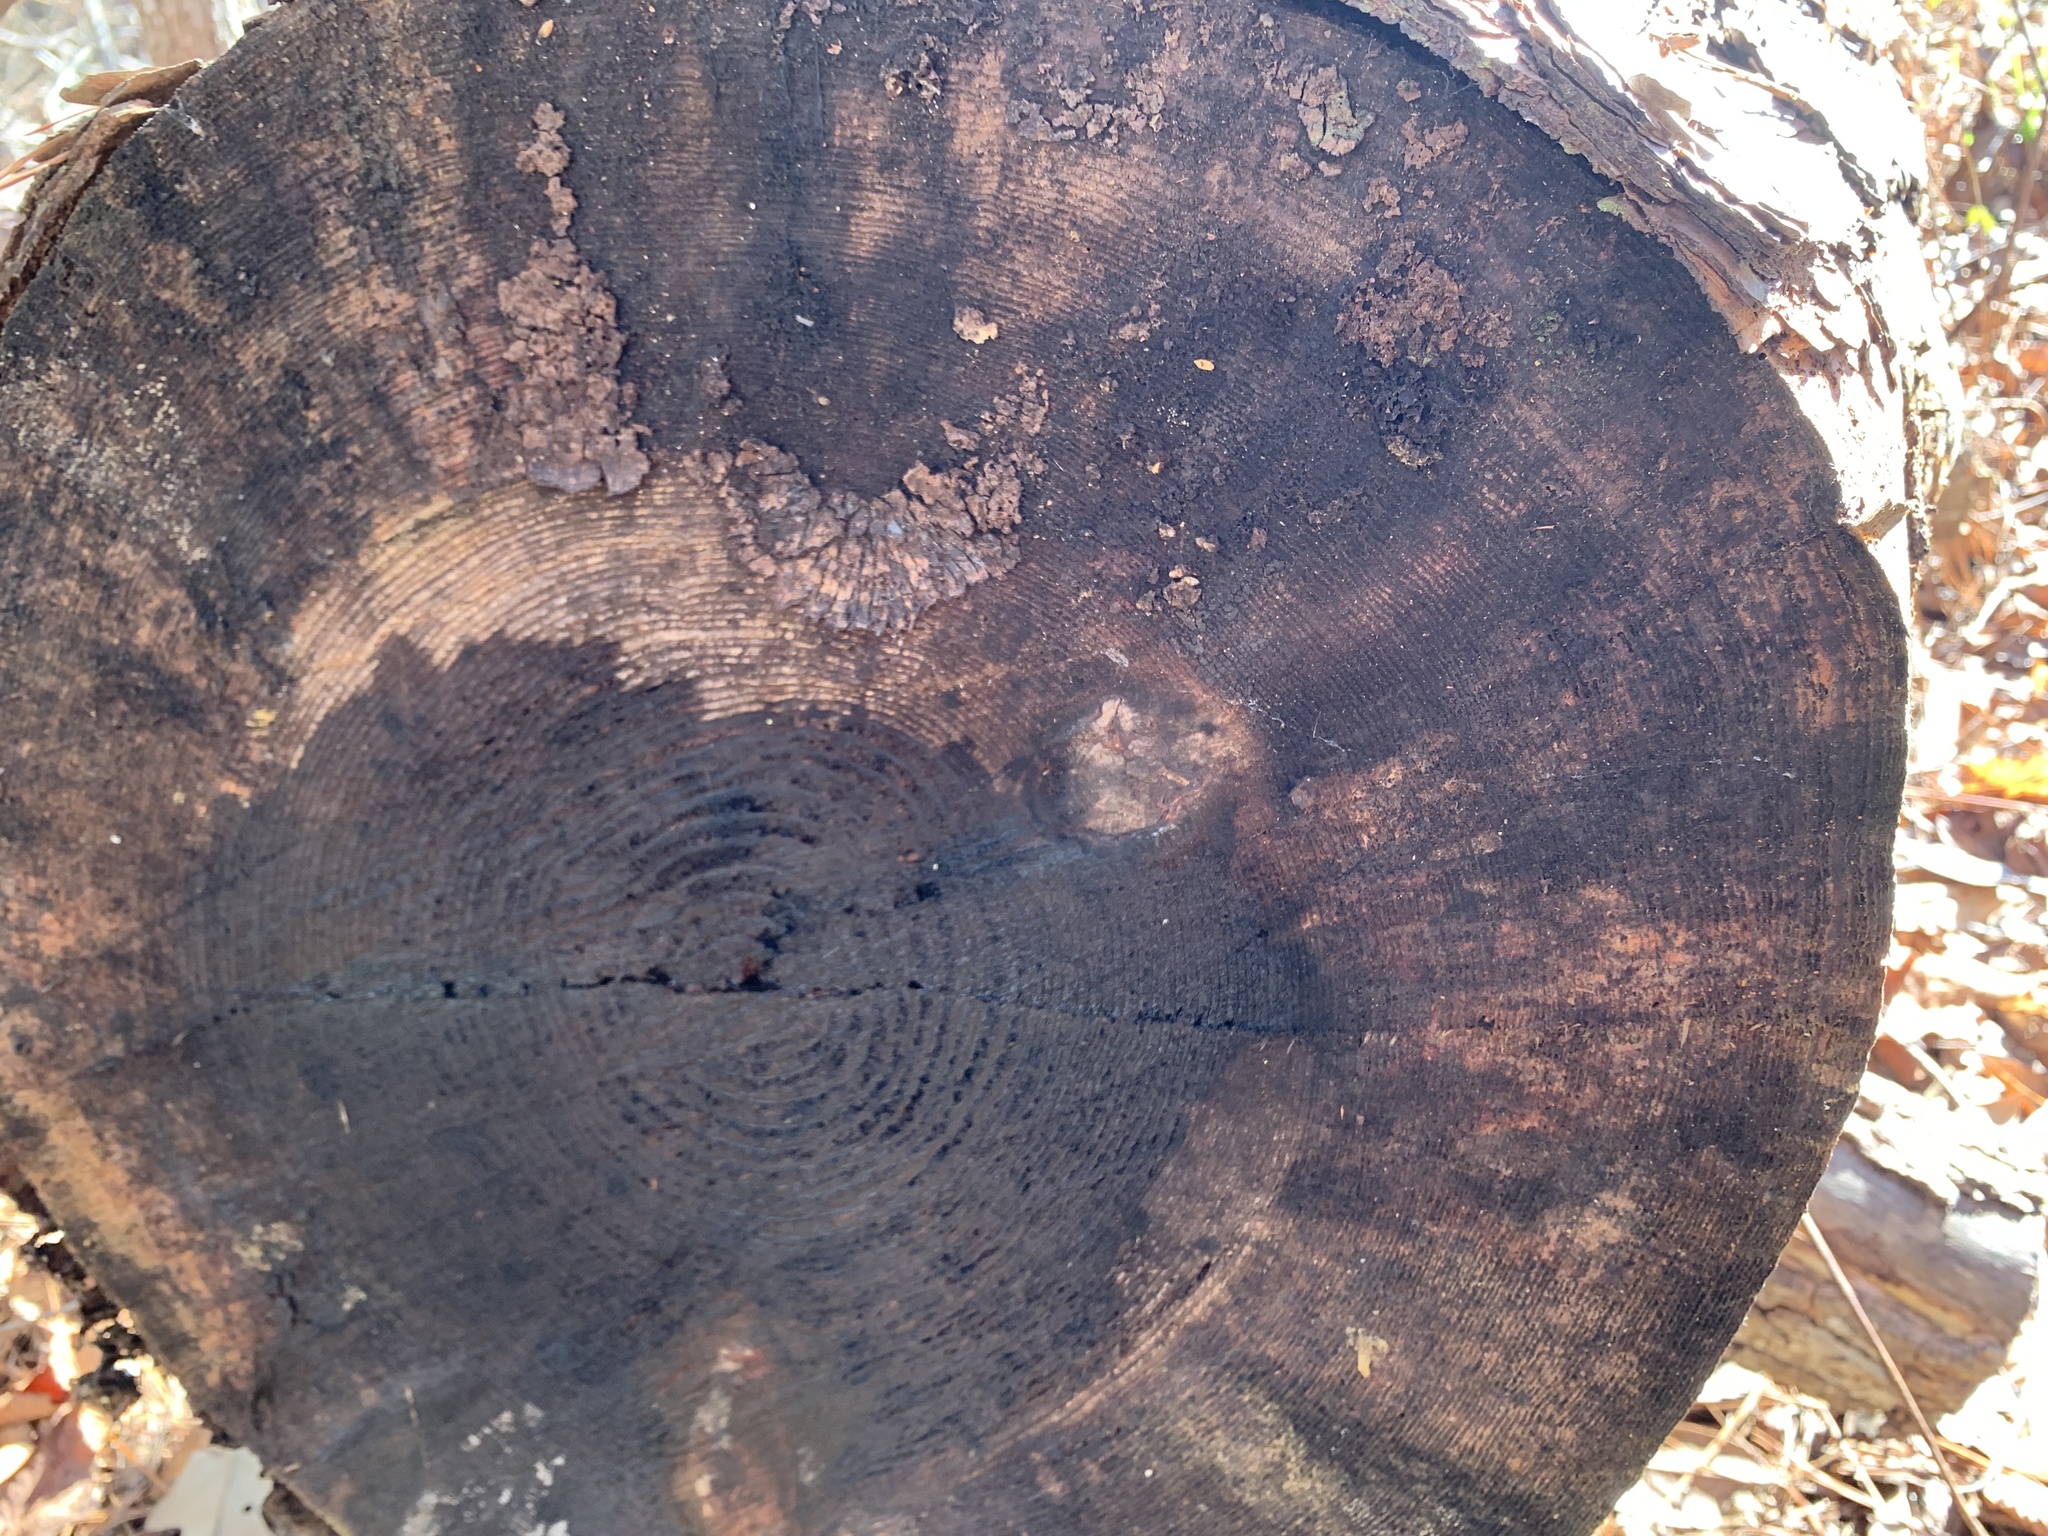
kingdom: Plantae
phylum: Tracheophyta
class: Pinopsida
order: Pinales
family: Pinaceae
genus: Pinus
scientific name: Pinus taeda
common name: Loblolly pine
